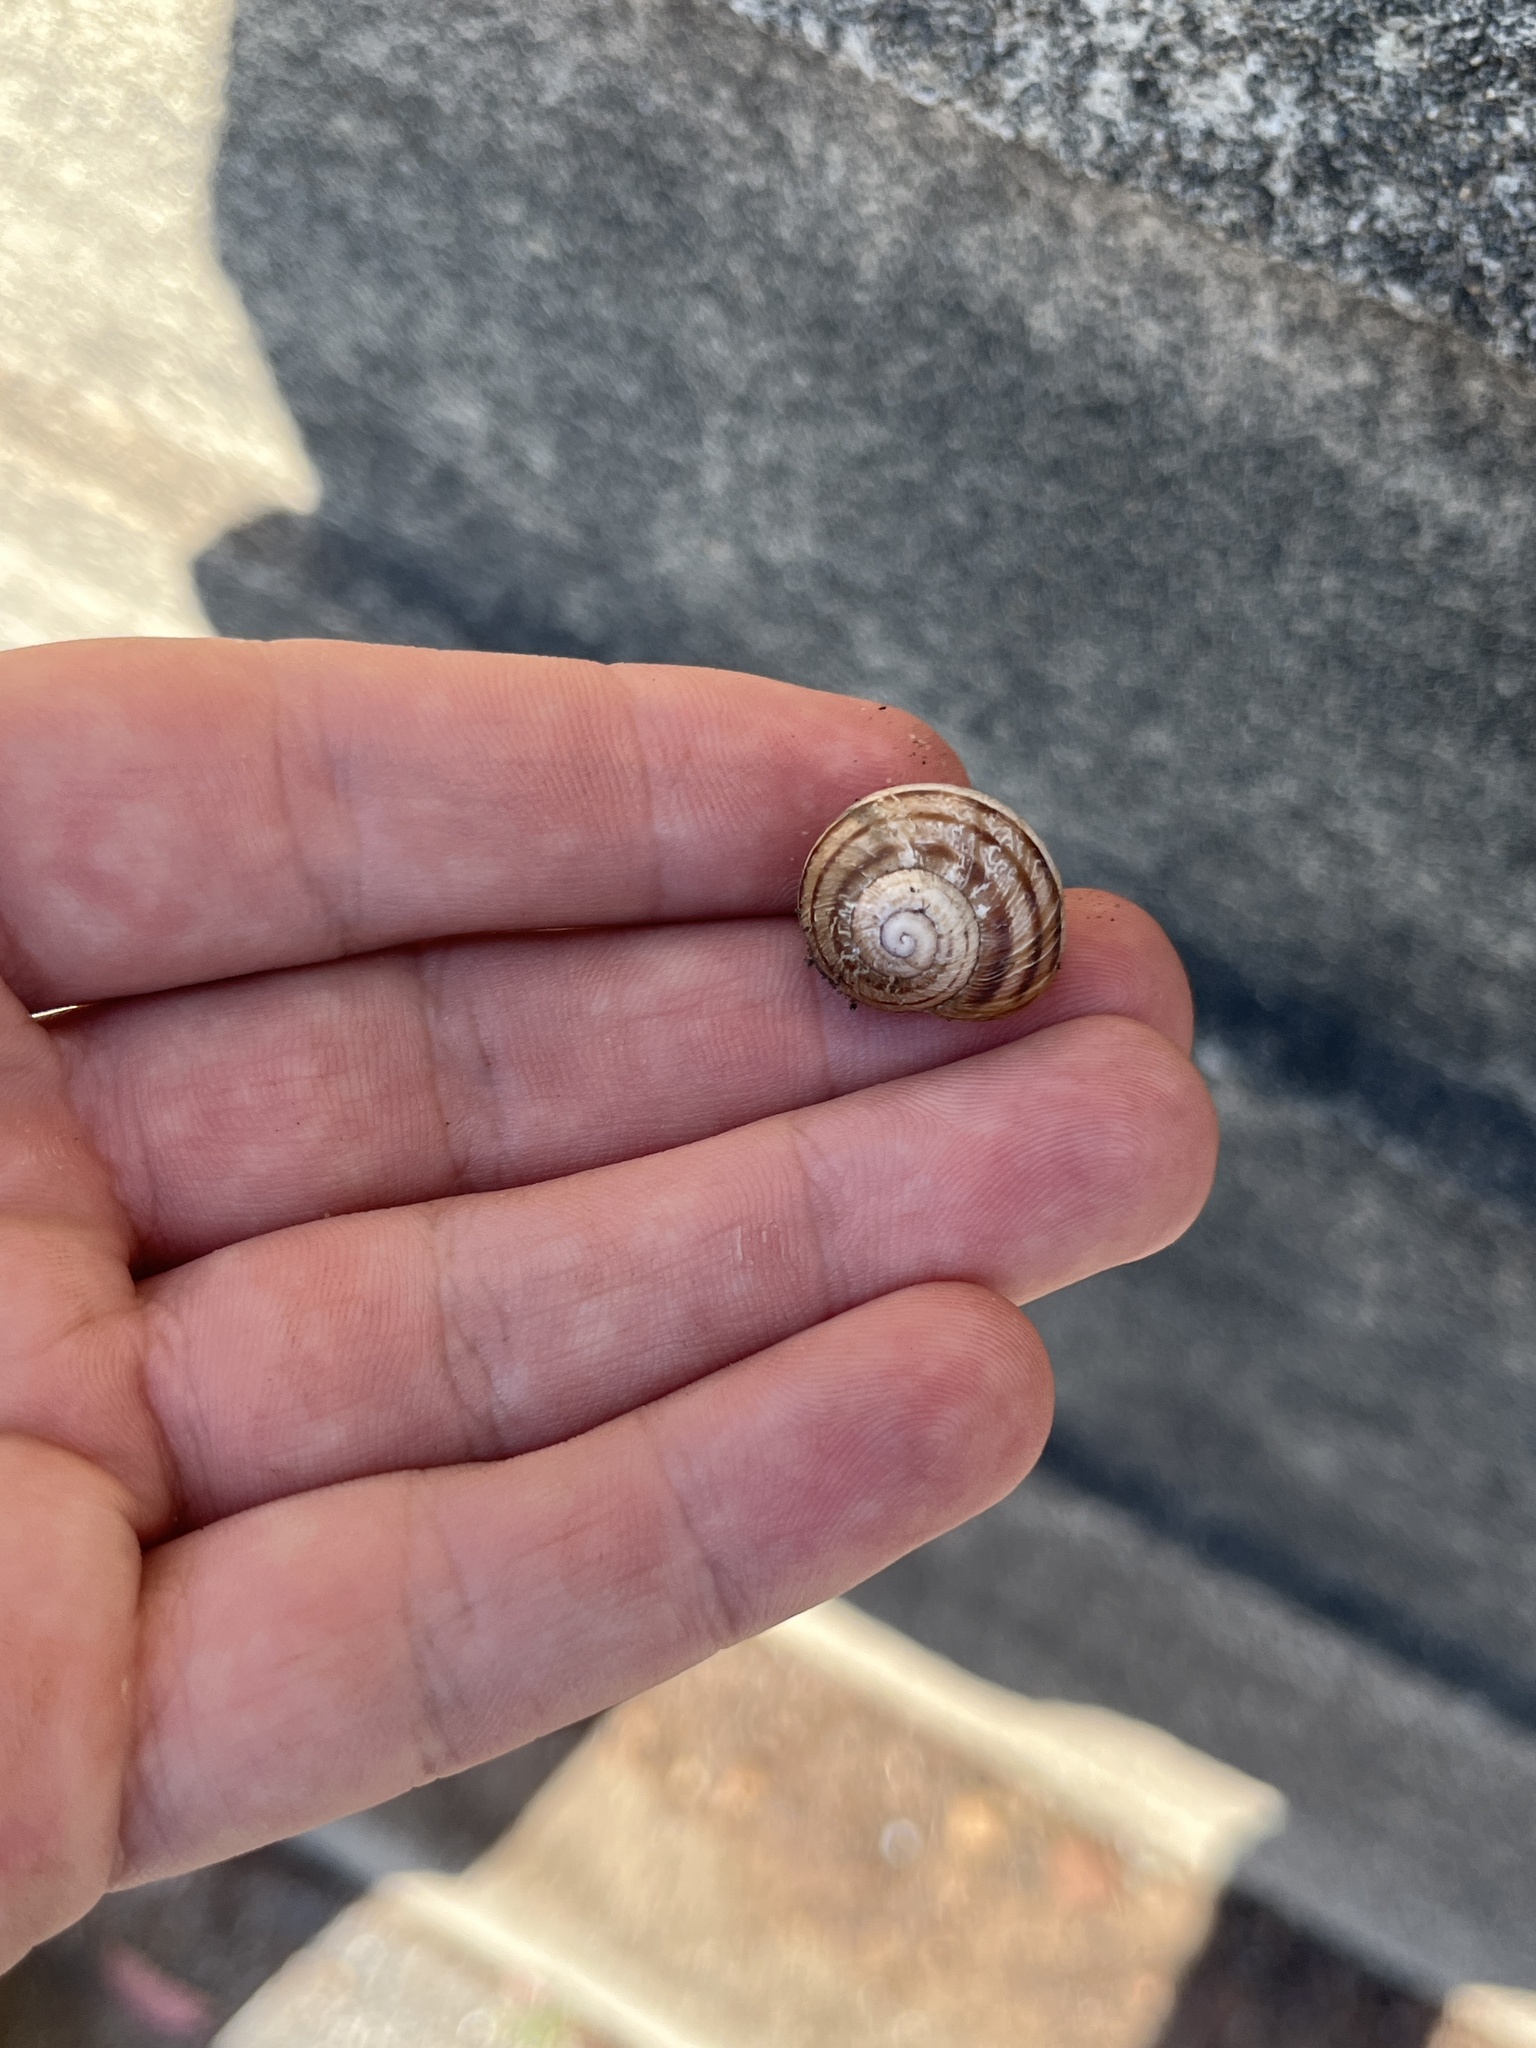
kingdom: Animalia
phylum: Mollusca
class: Gastropoda
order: Stylommatophora
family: Helicidae
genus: Cornu
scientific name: Cornu aspersum
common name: Brown garden snail
